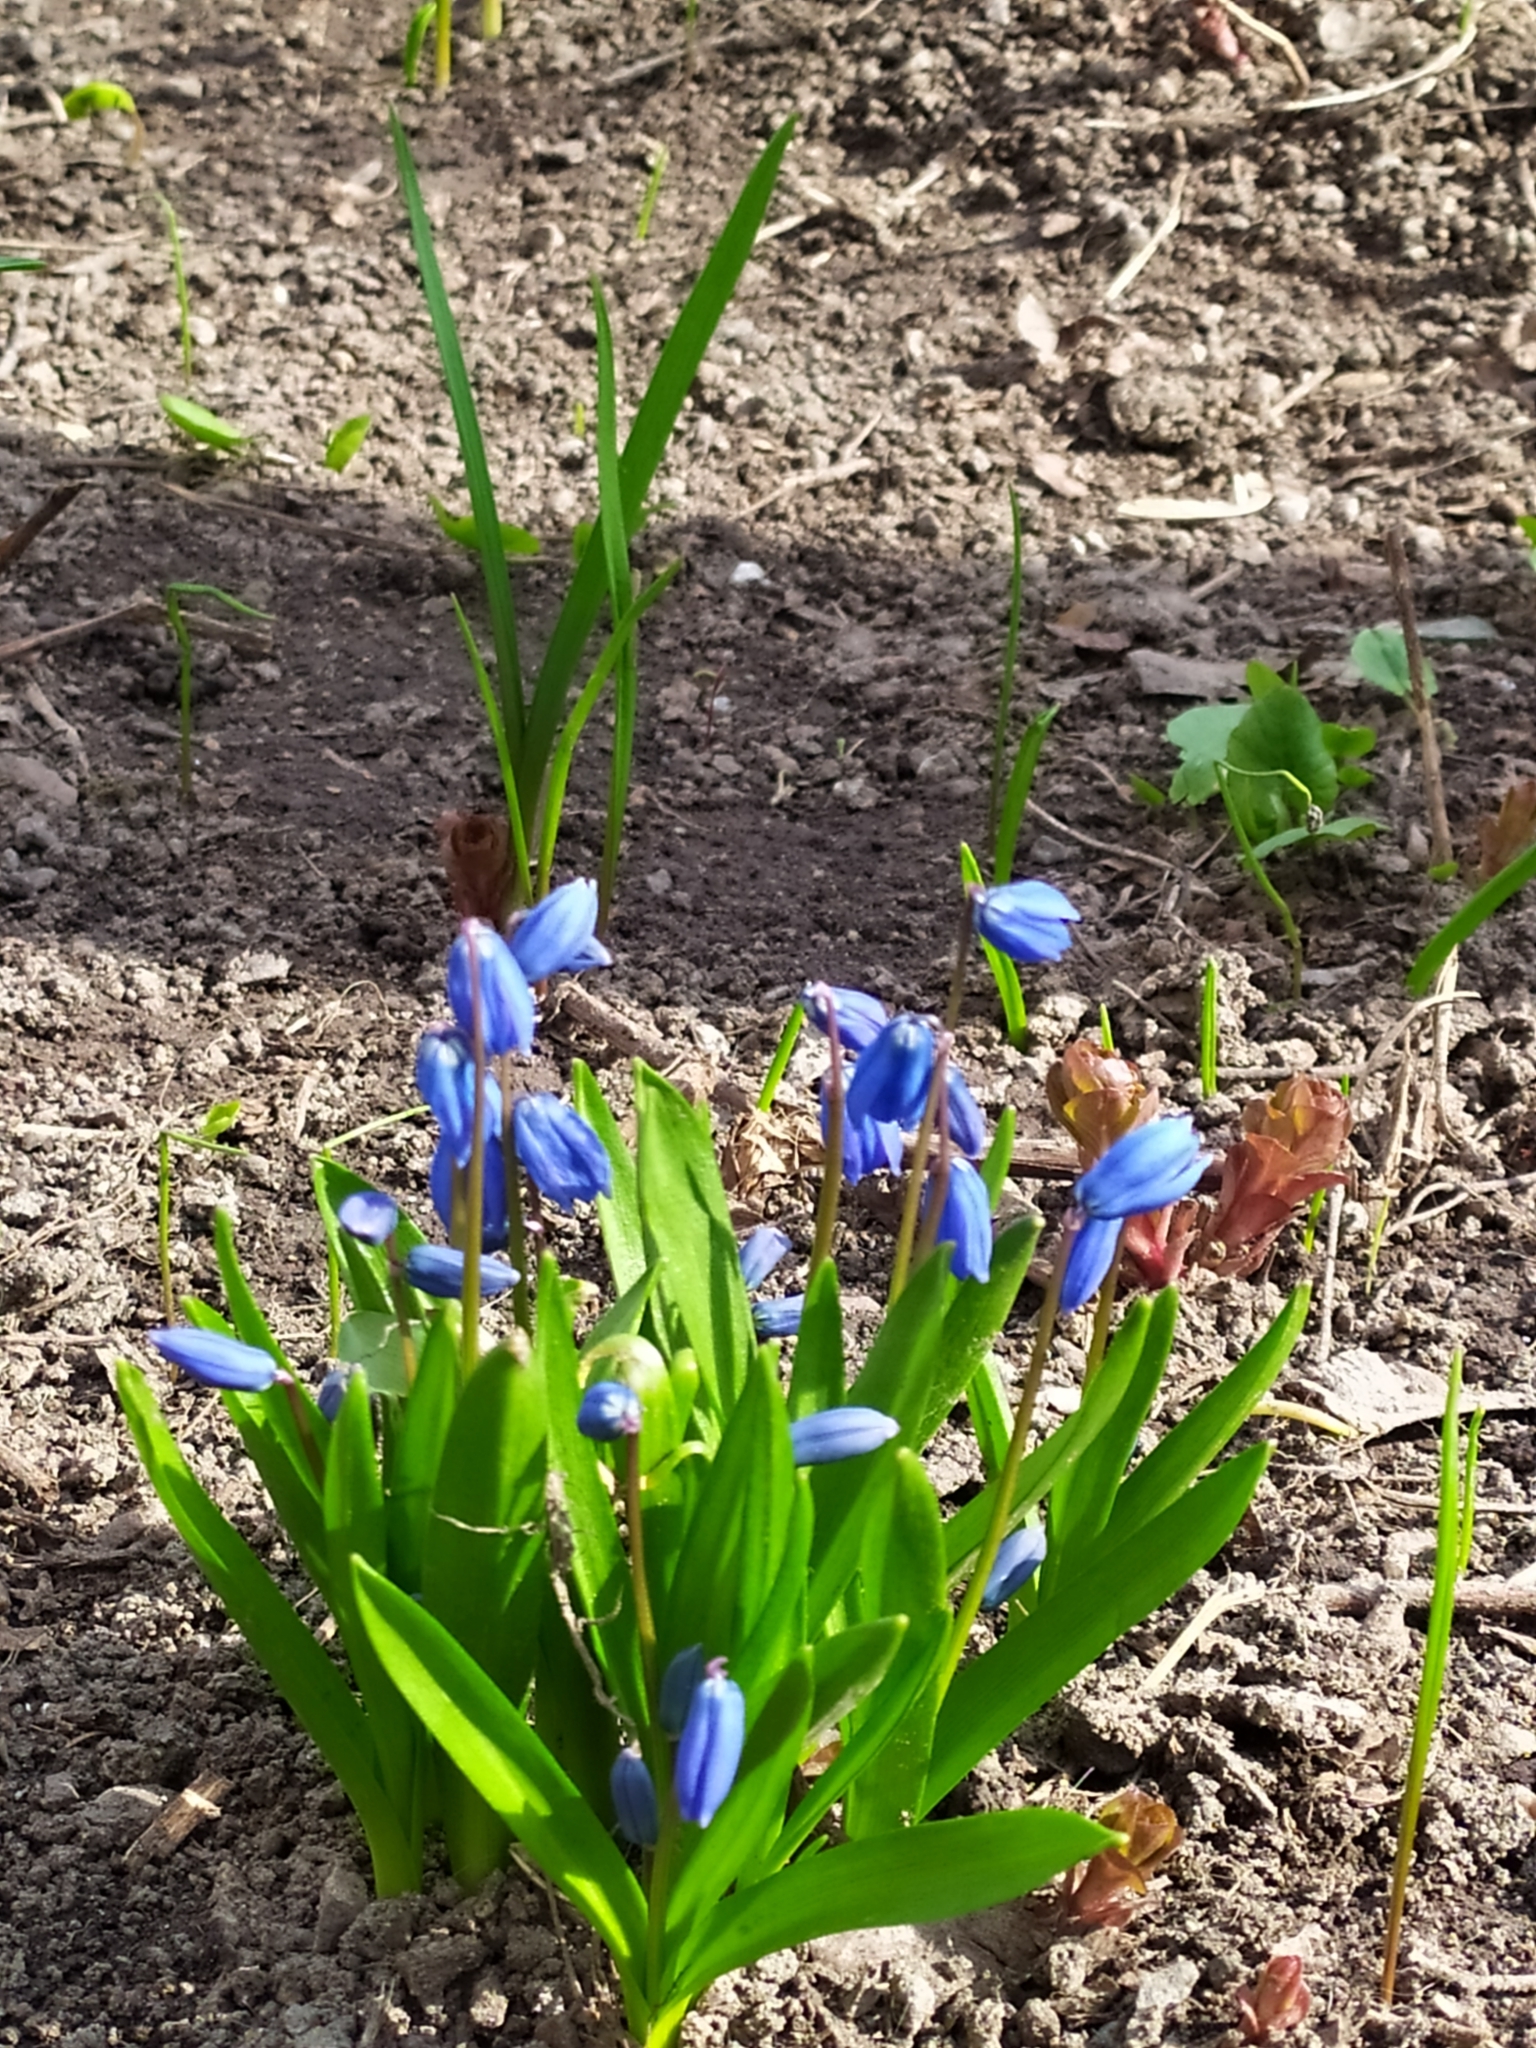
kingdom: Plantae
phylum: Tracheophyta
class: Liliopsida
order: Asparagales
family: Asparagaceae
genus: Scilla
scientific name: Scilla siberica
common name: Siberian squill
